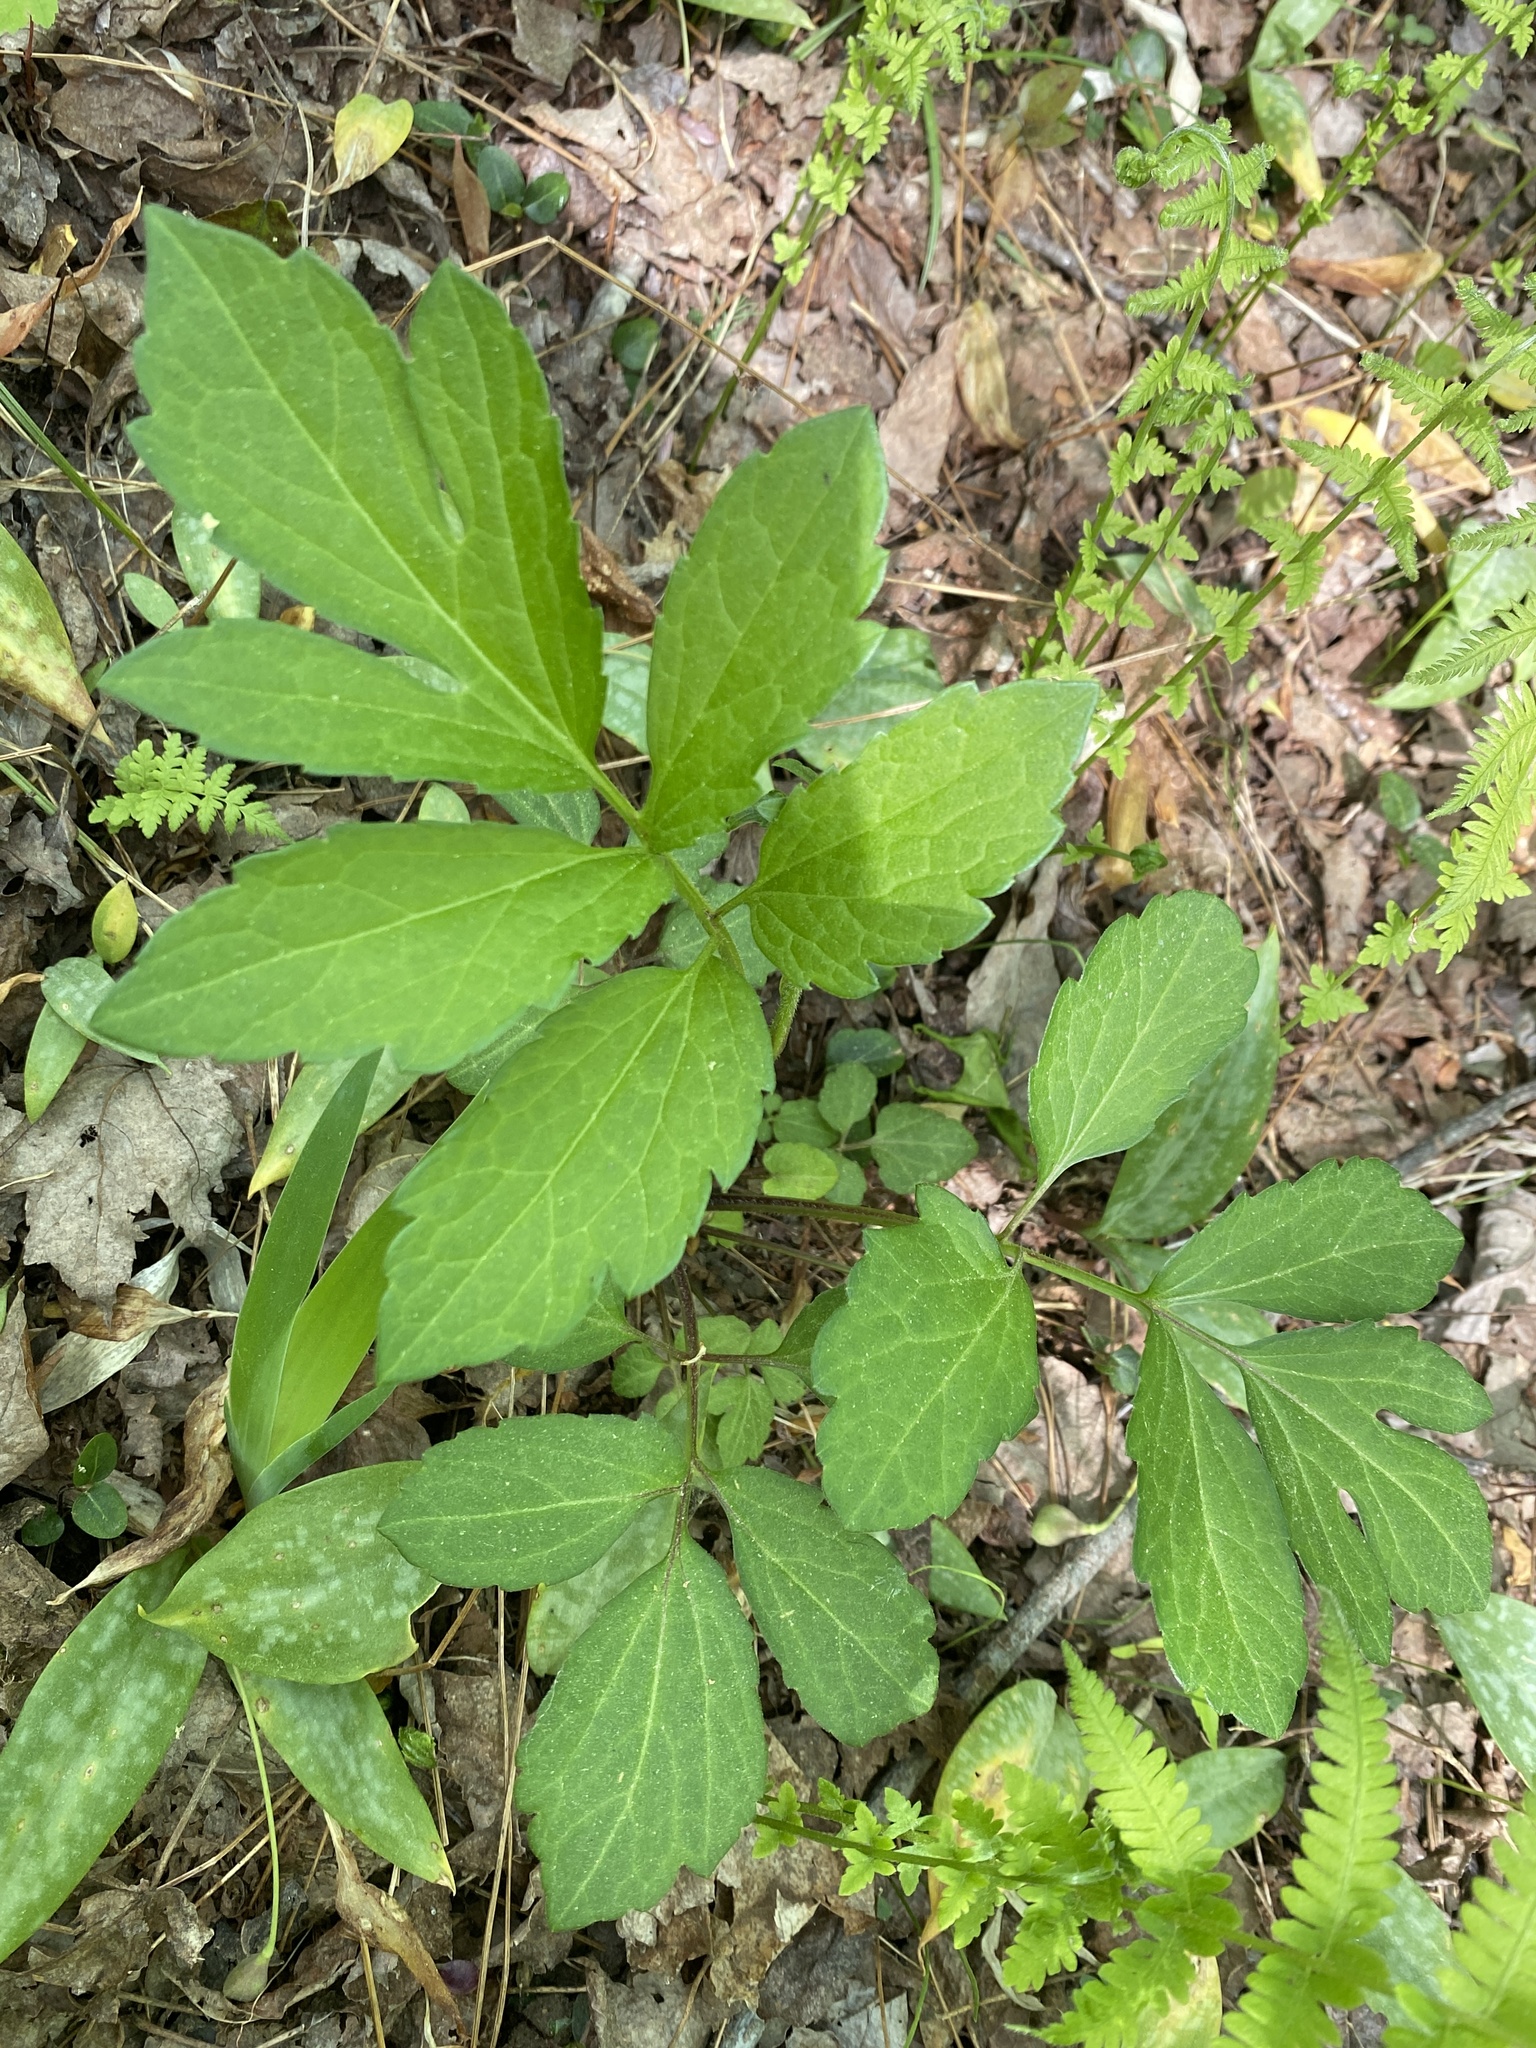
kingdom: Plantae
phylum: Tracheophyta
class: Magnoliopsida
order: Asterales
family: Asteraceae
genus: Rudbeckia
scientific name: Rudbeckia laciniata
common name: Coneflower
